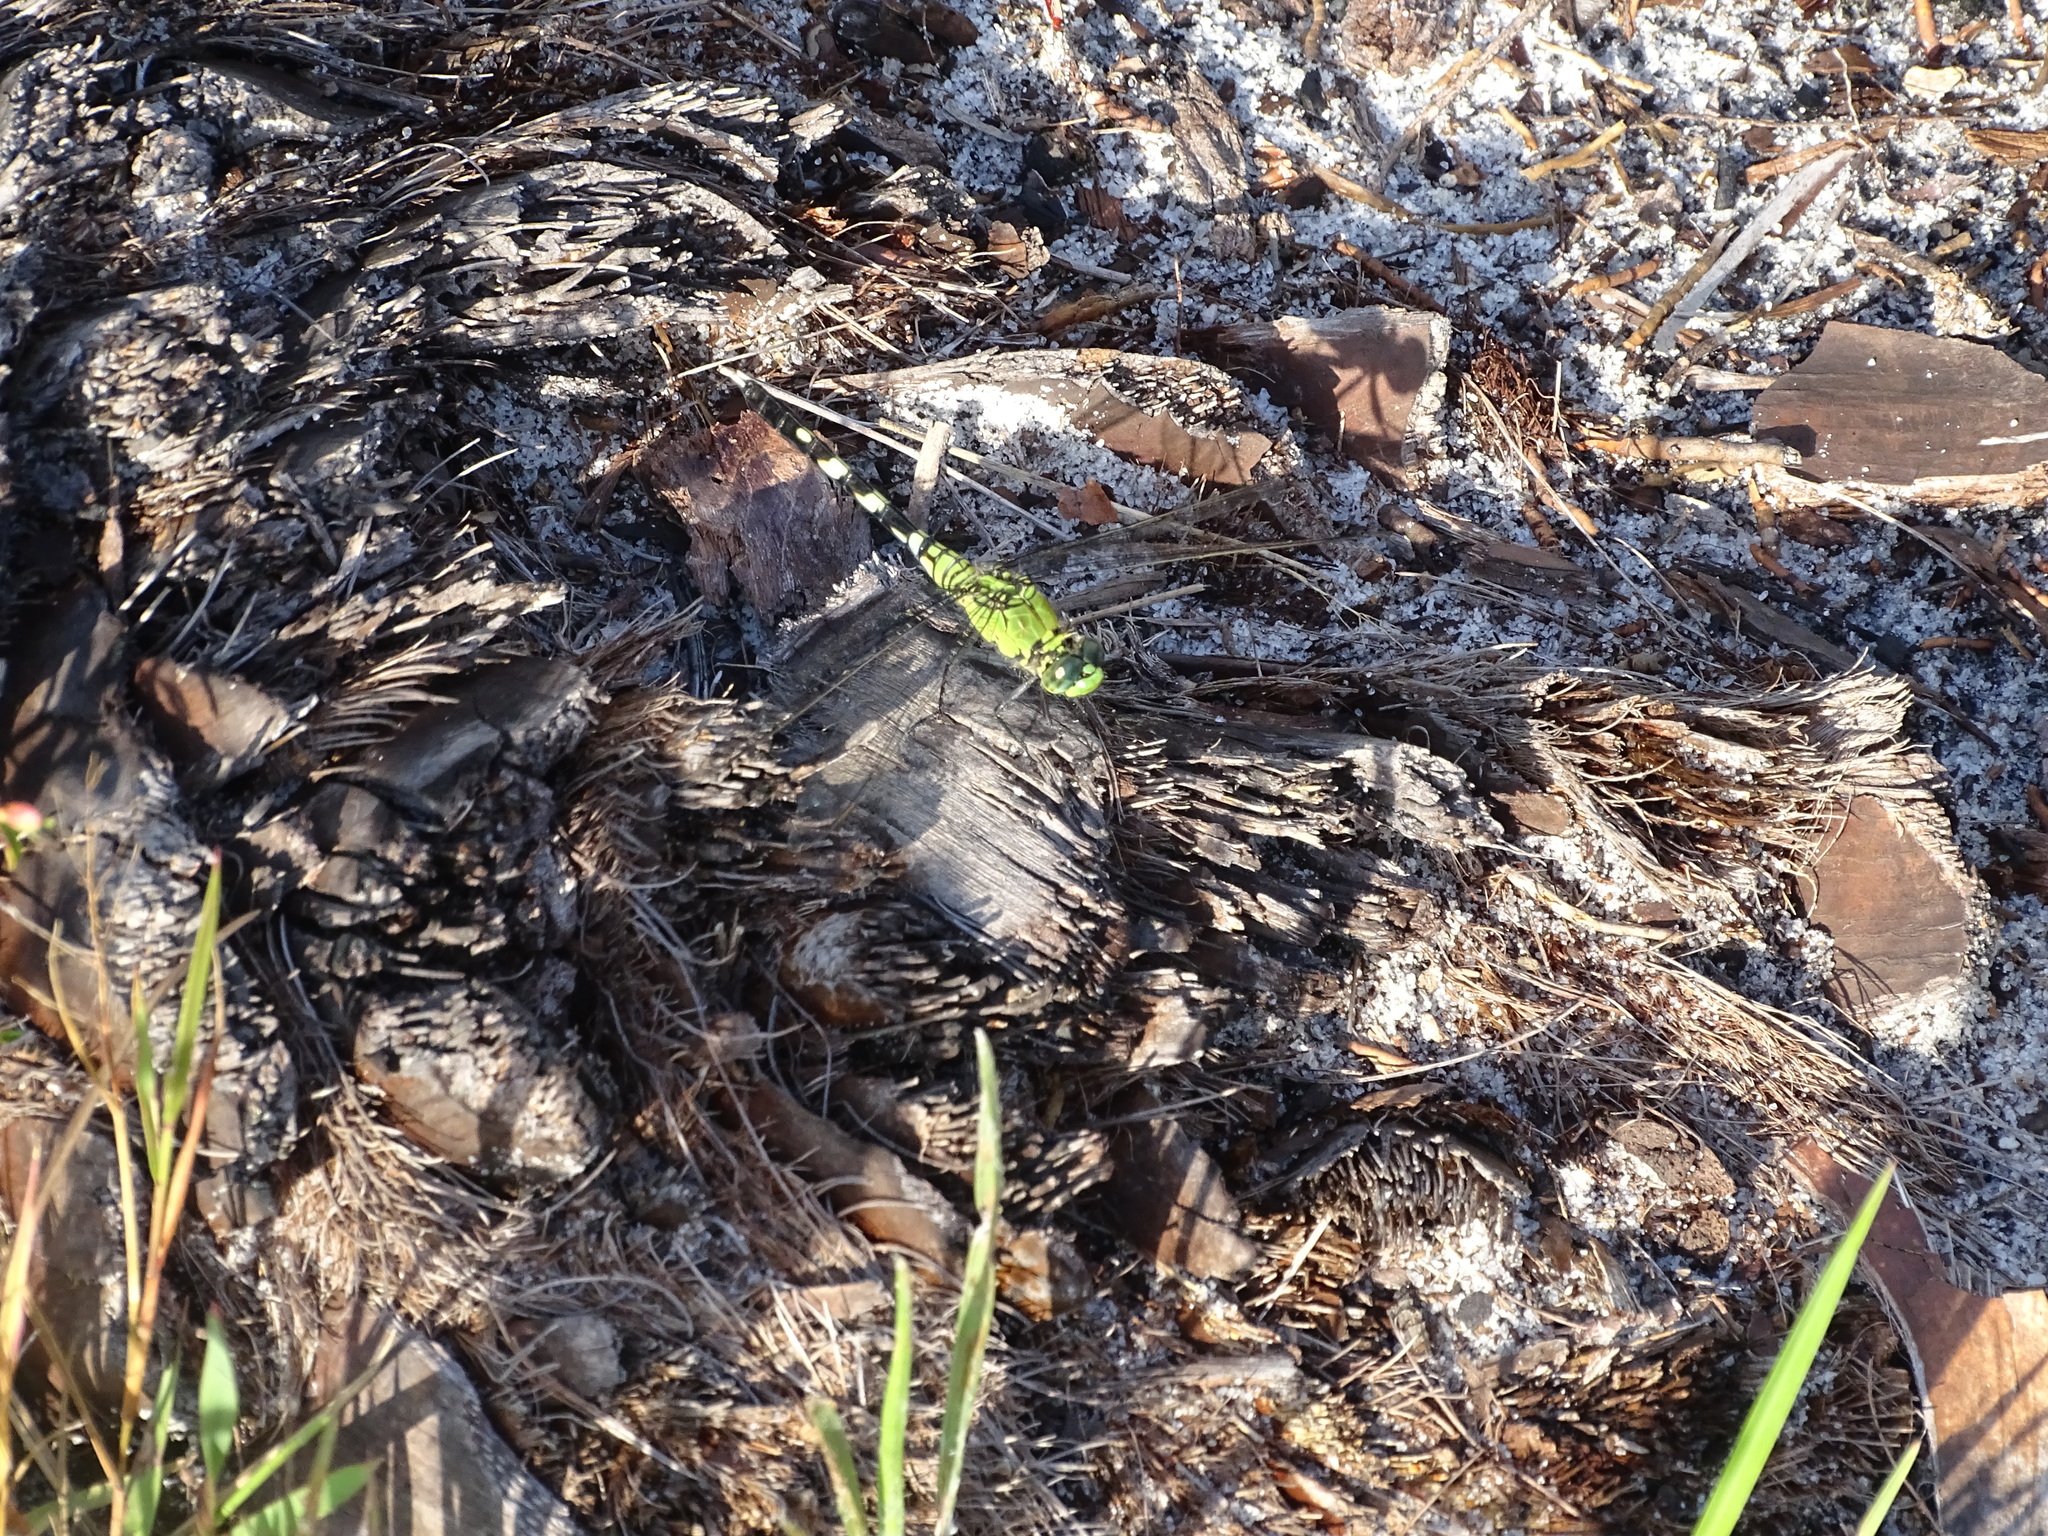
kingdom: Animalia
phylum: Arthropoda
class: Insecta
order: Odonata
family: Libellulidae
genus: Erythemis
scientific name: Erythemis simplicicollis
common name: Eastern pondhawk
